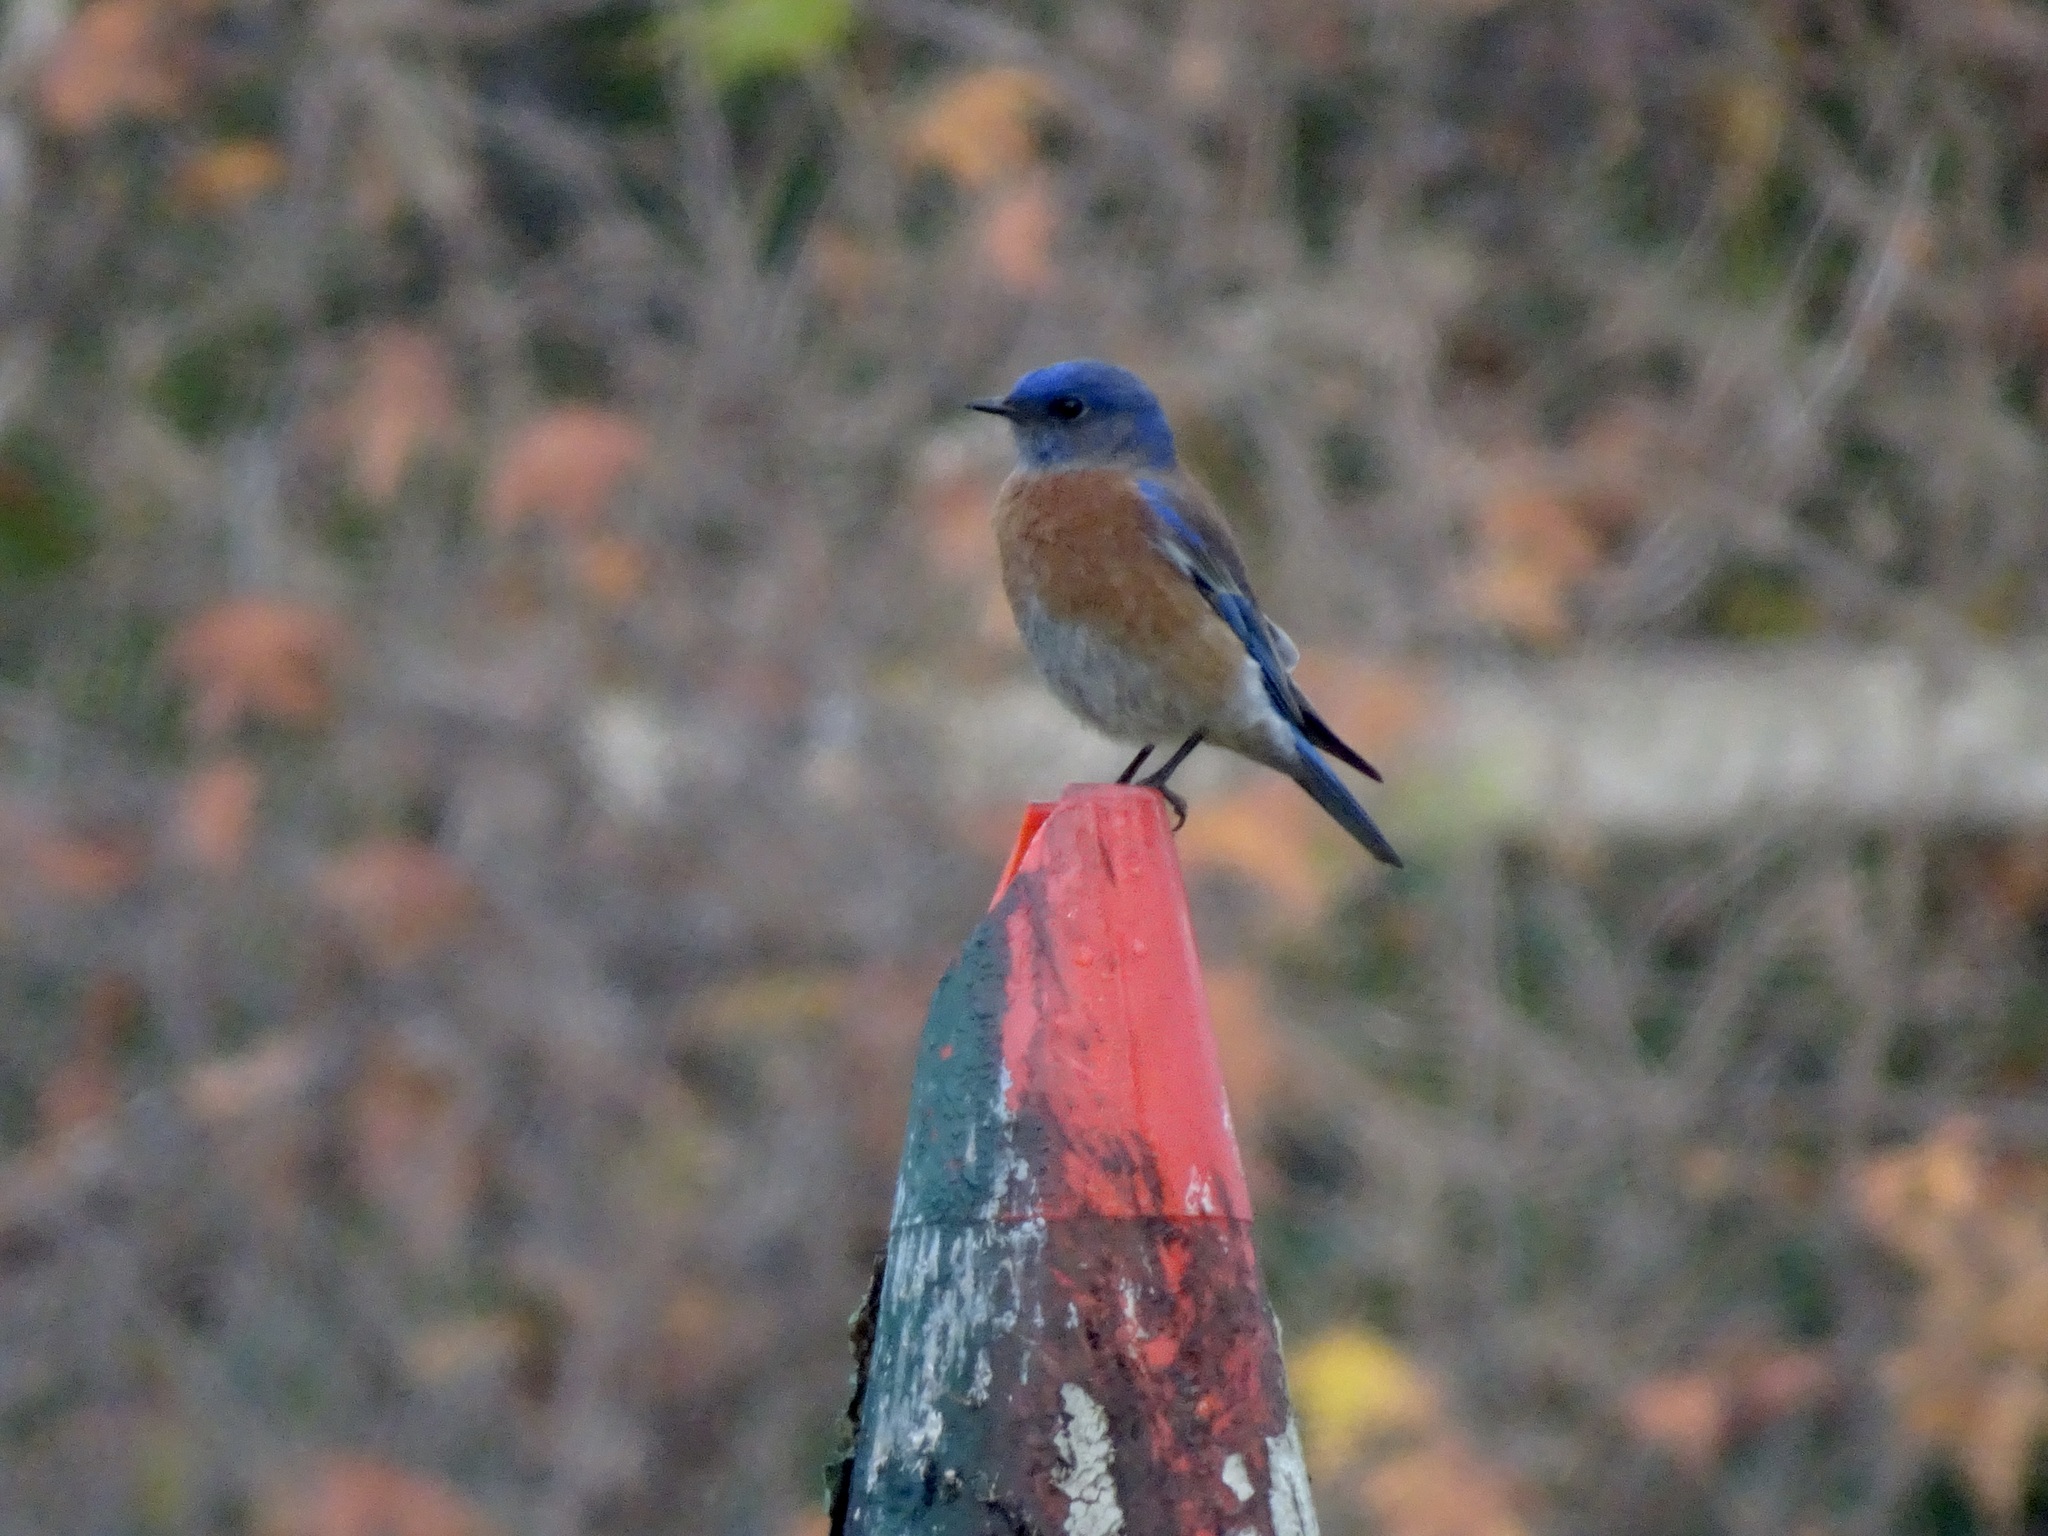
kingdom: Animalia
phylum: Chordata
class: Aves
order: Passeriformes
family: Turdidae
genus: Sialia
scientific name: Sialia mexicana
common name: Western bluebird
